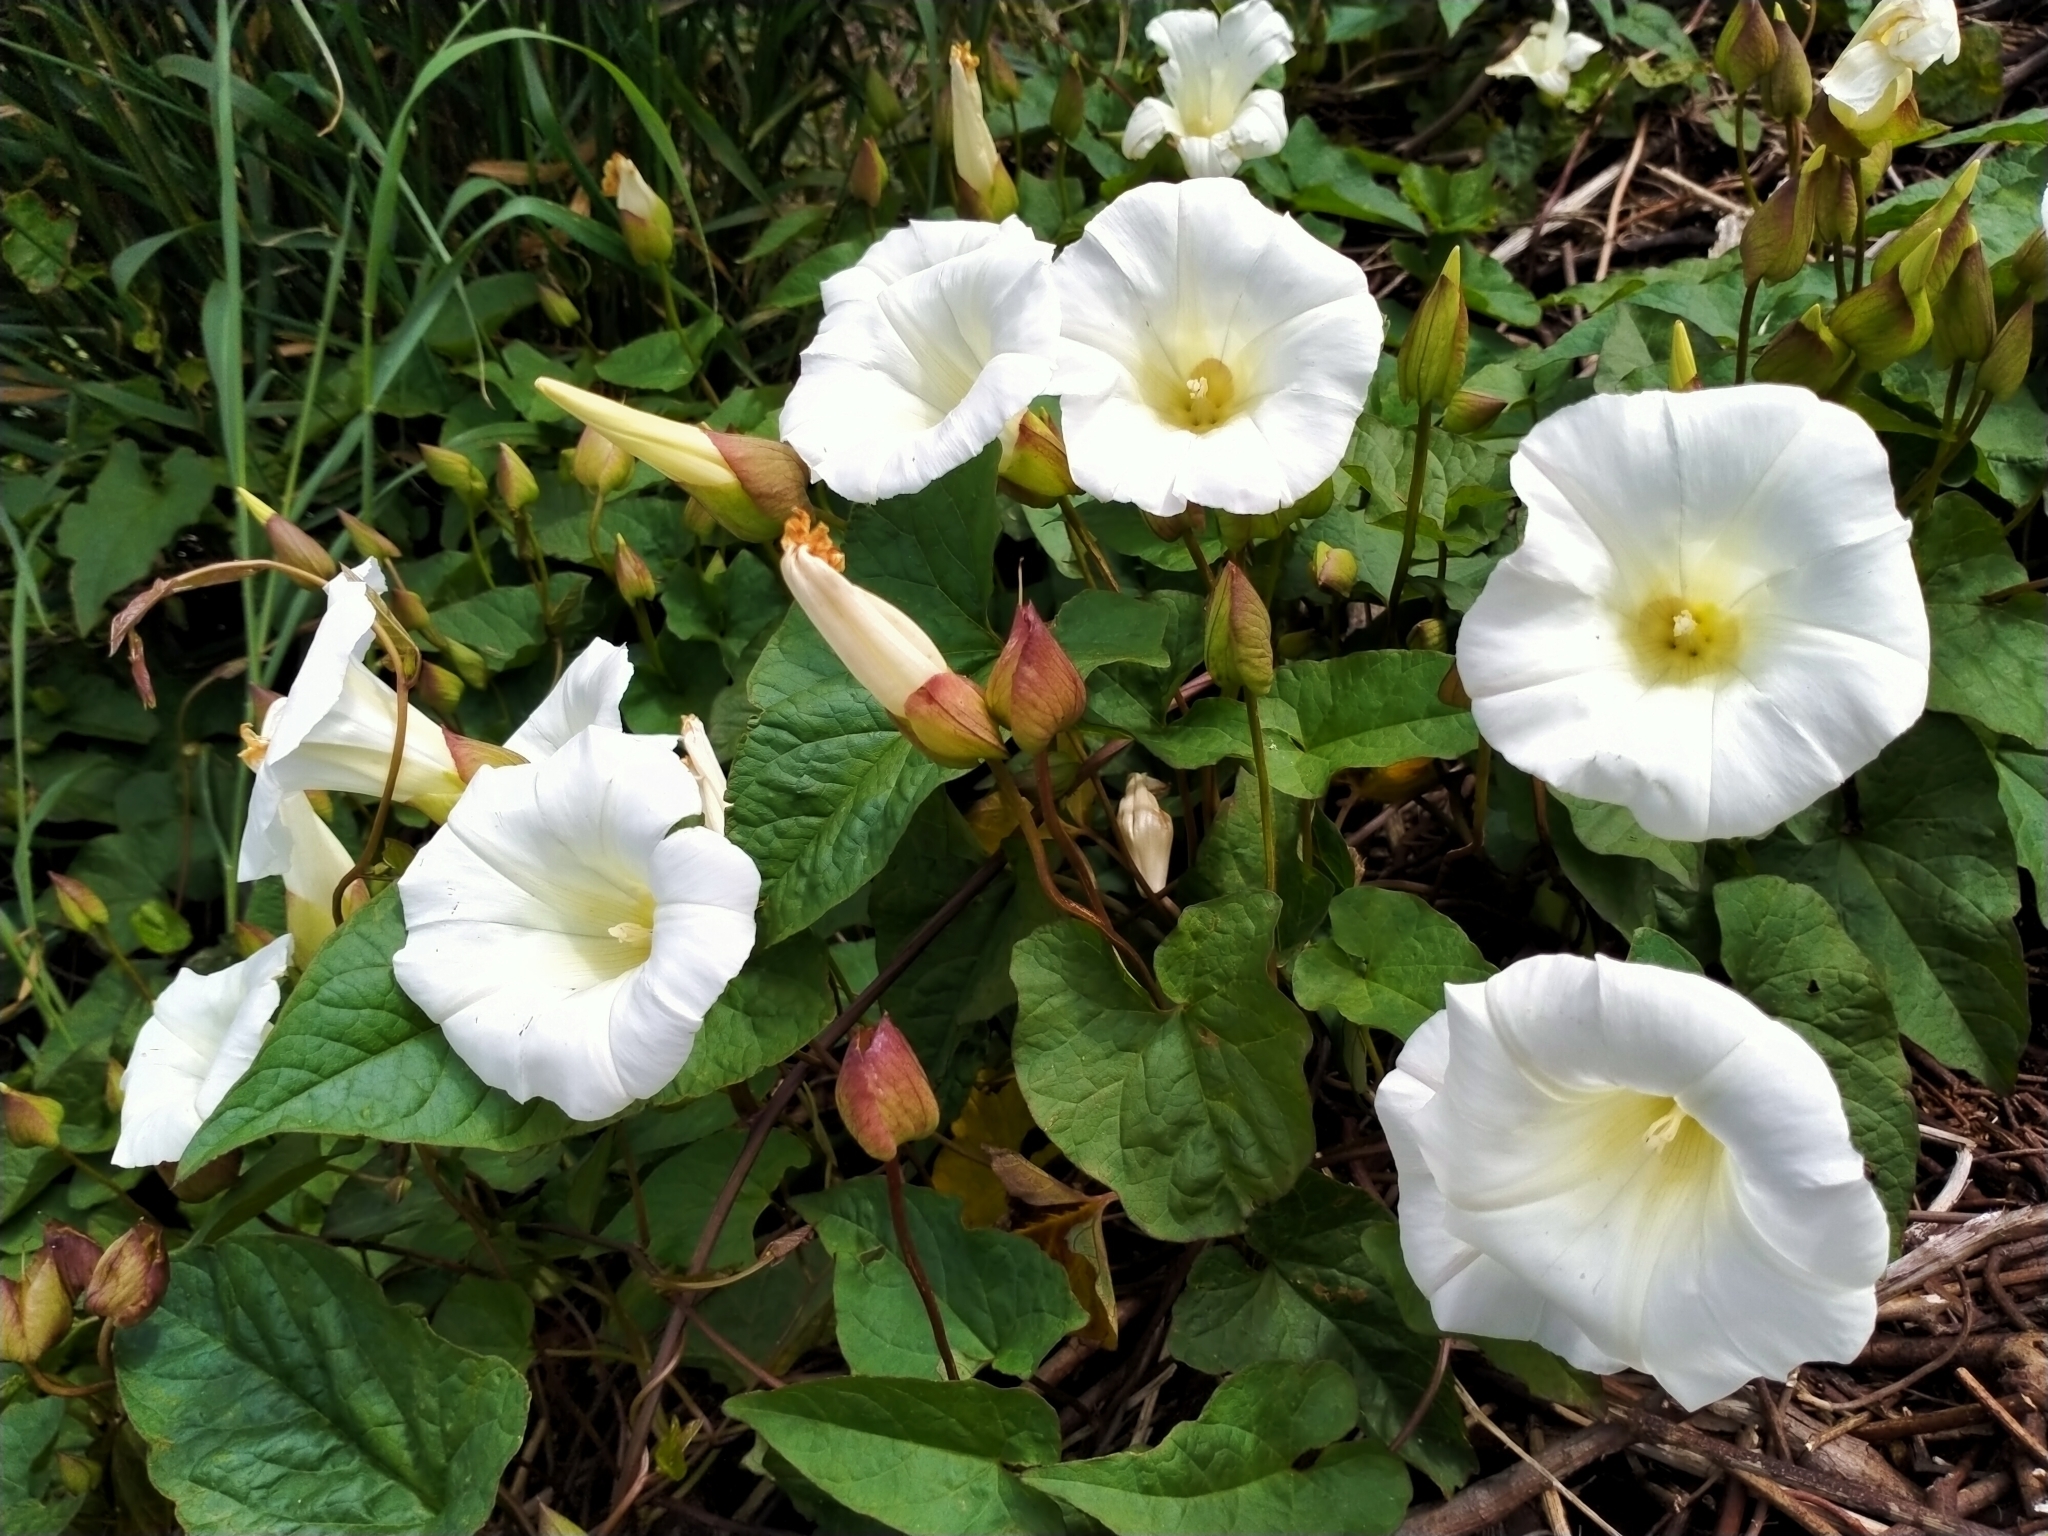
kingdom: Plantae
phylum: Tracheophyta
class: Magnoliopsida
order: Solanales
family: Convolvulaceae
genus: Calystegia
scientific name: Calystegia silvatica
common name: Large bindweed
